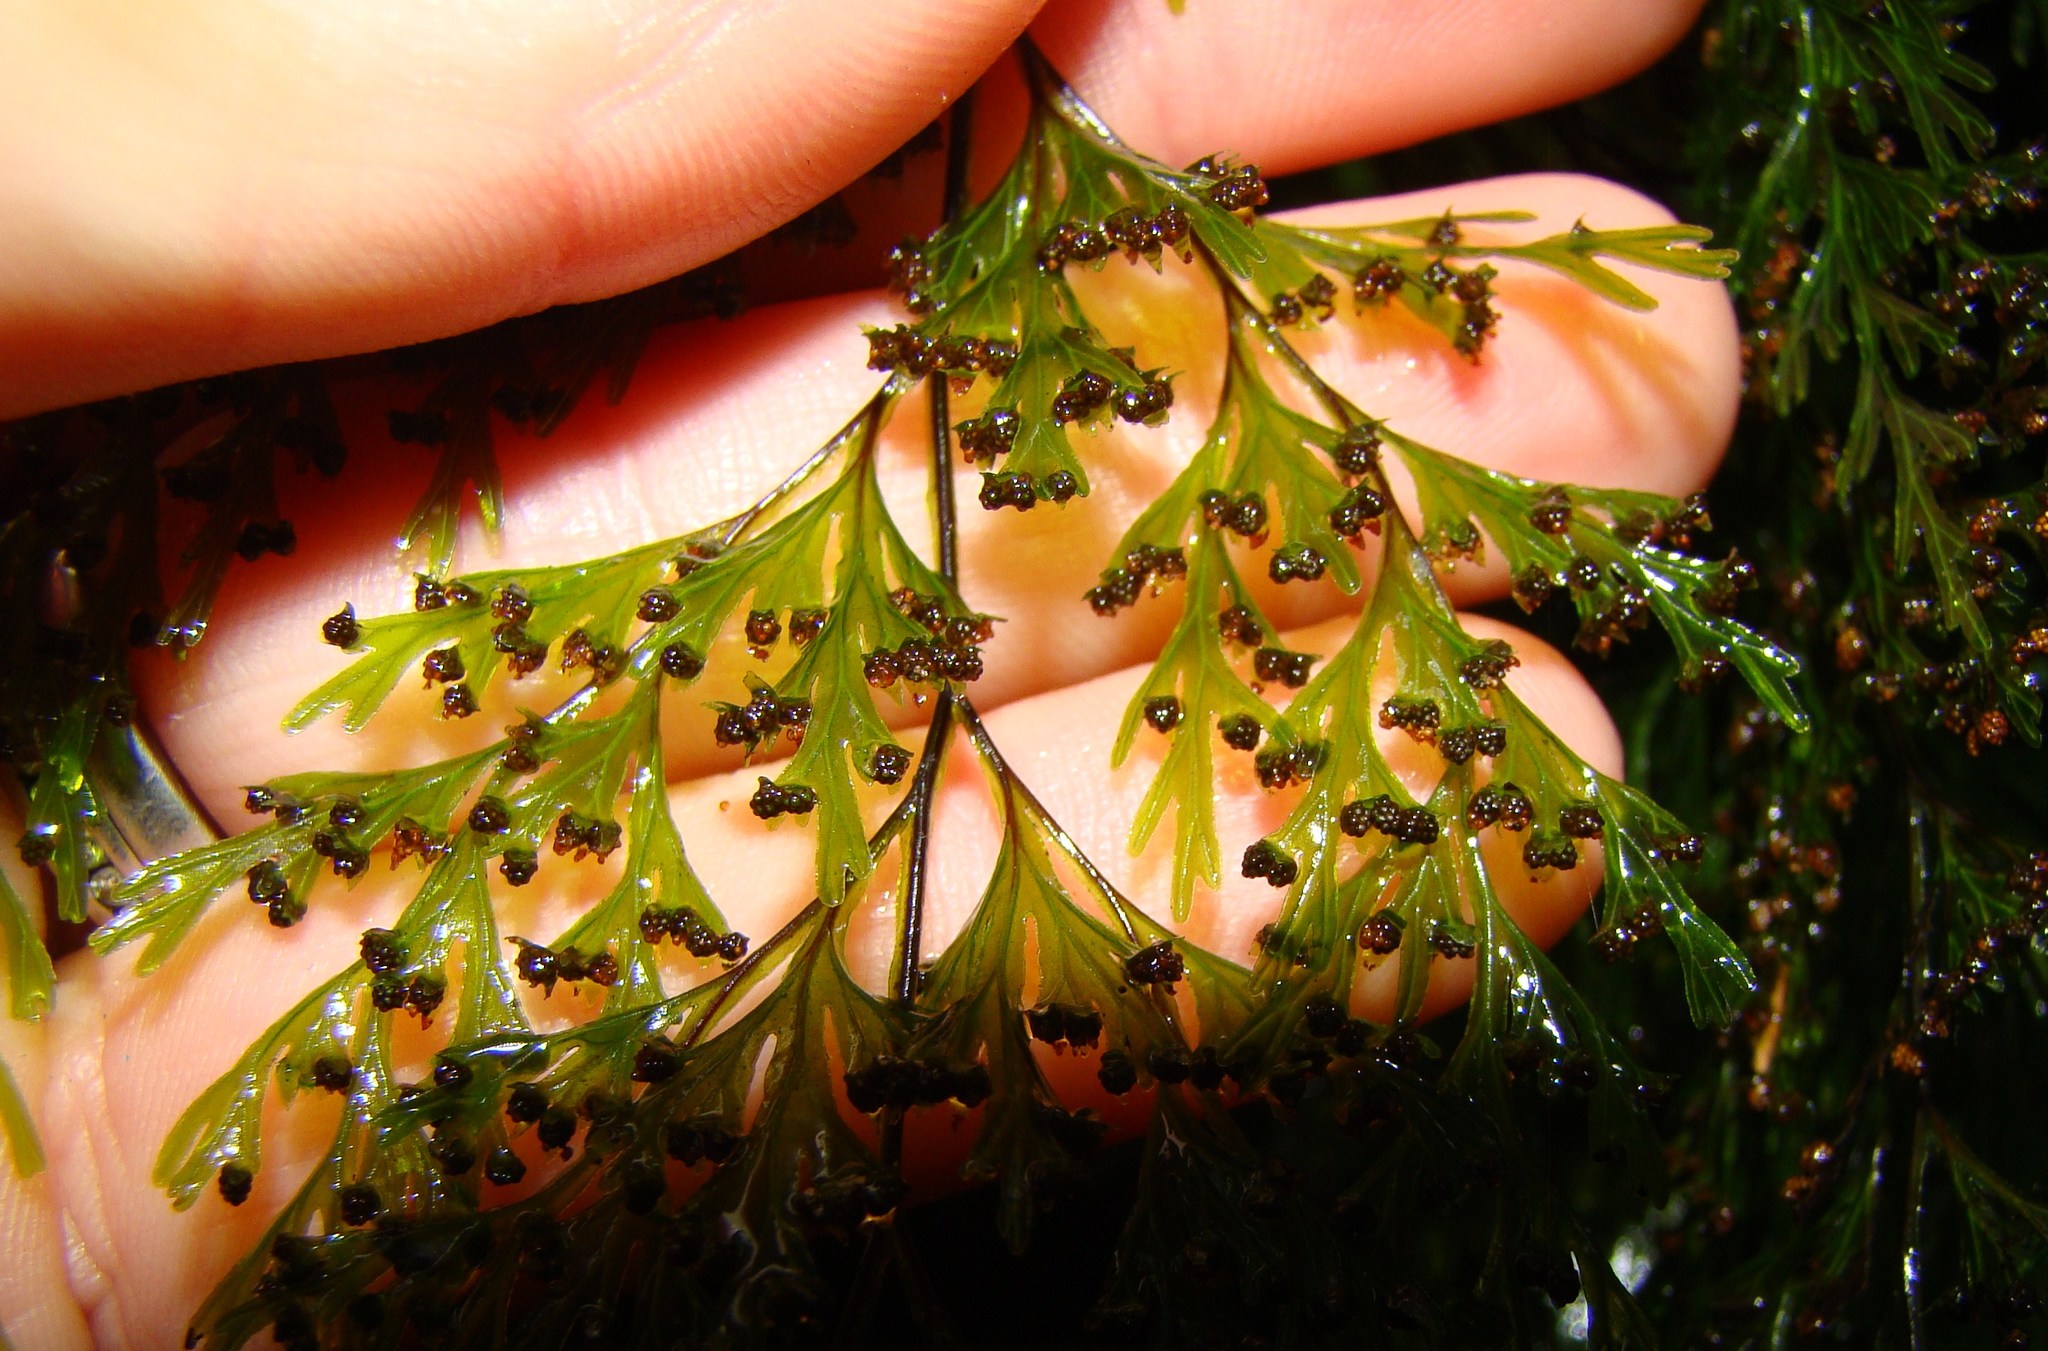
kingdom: Plantae
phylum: Tracheophyta
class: Polypodiopsida
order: Hymenophyllales
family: Hymenophyllaceae
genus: Hymenophyllum
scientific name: Hymenophyllum demissum
